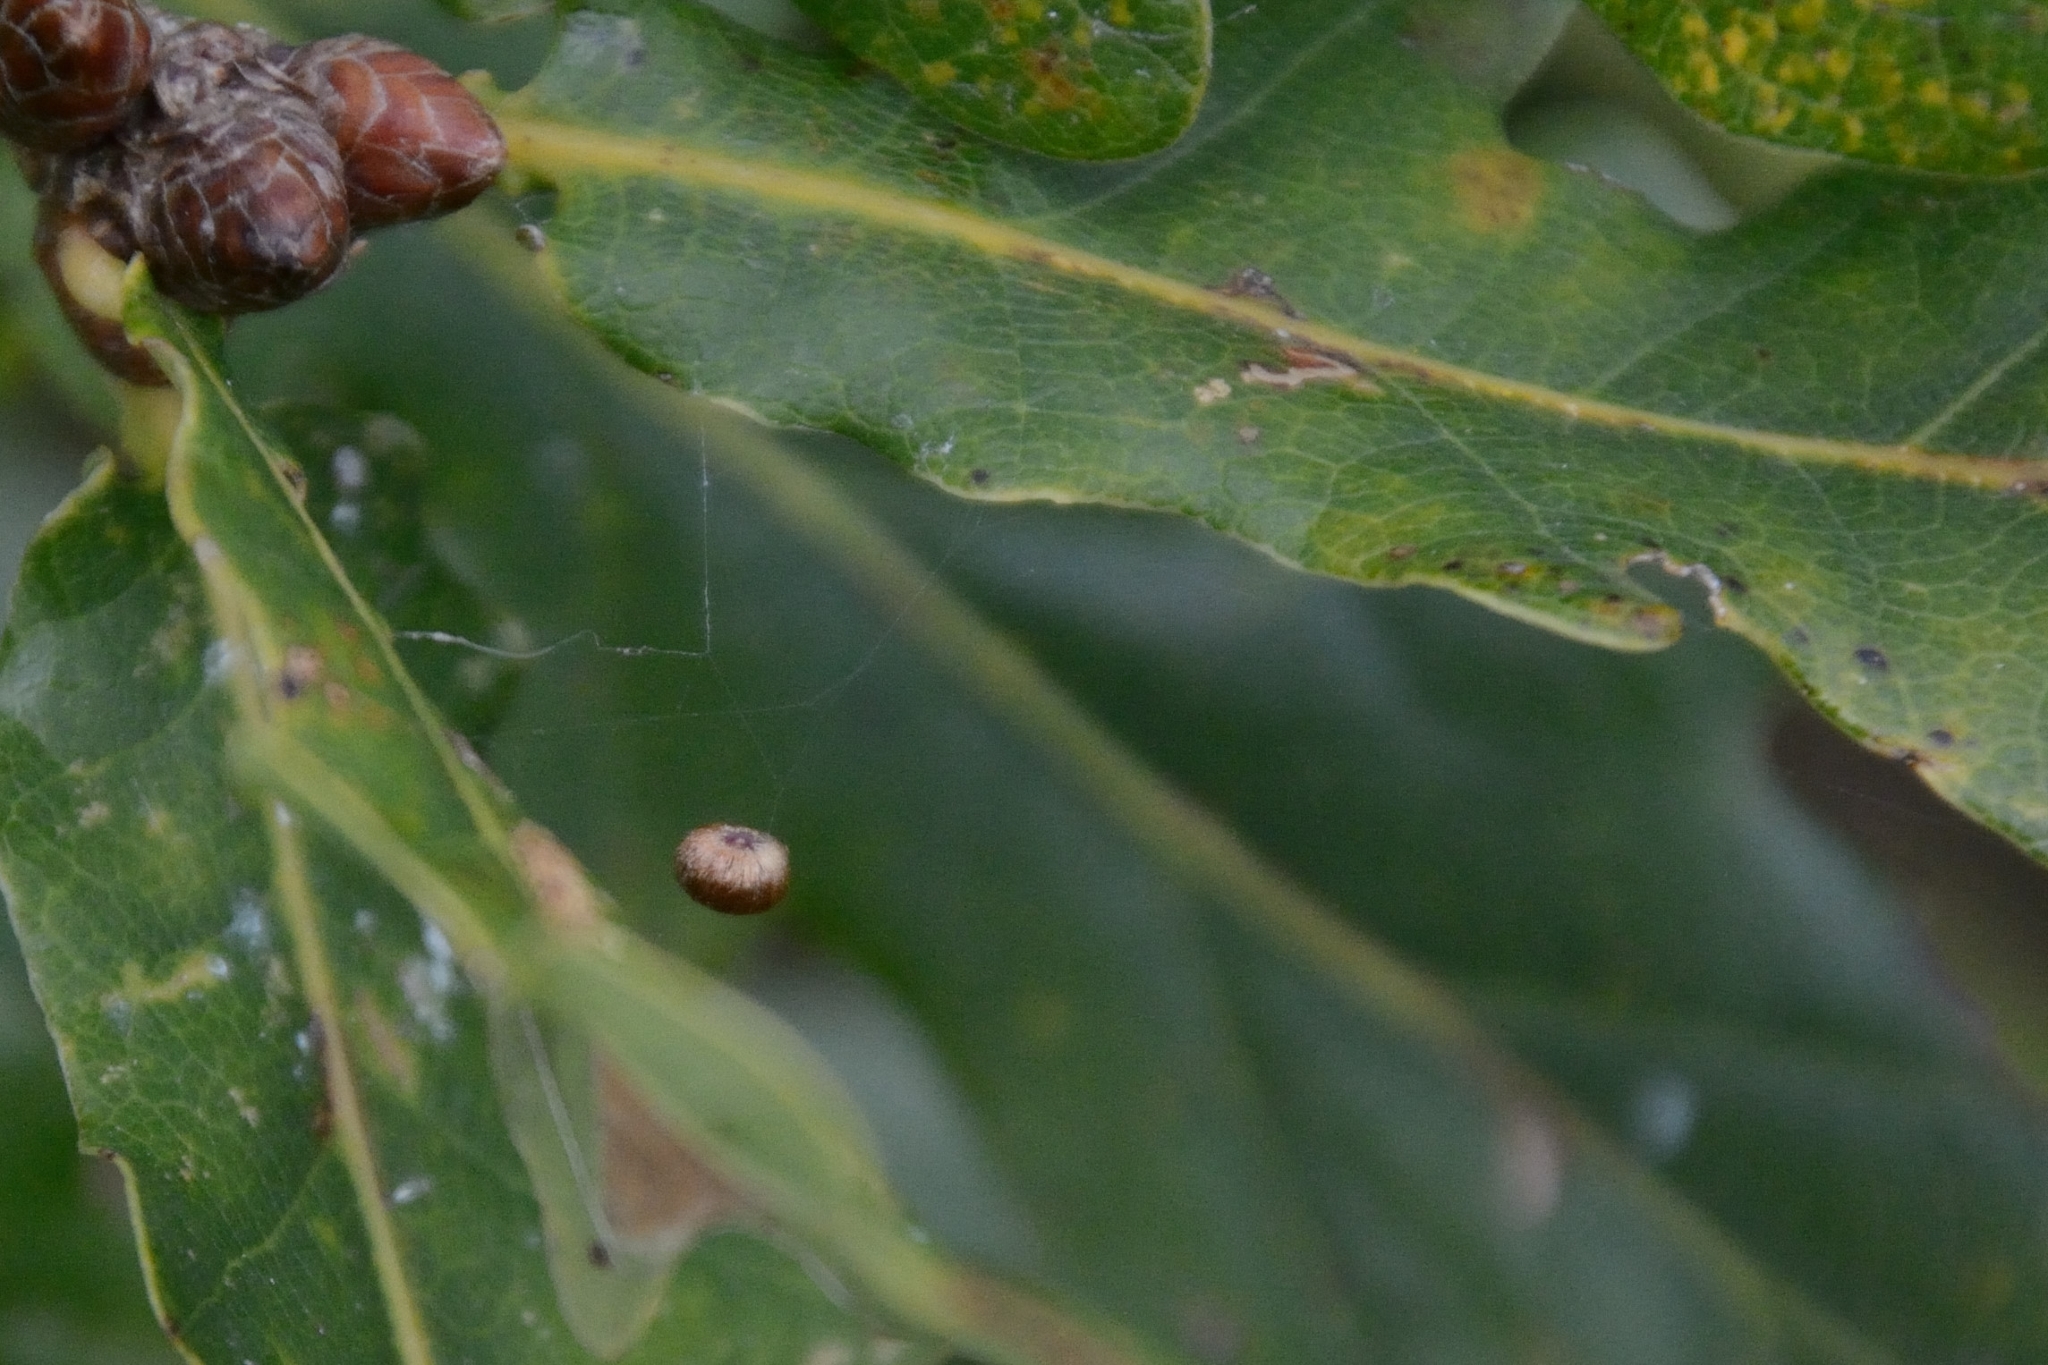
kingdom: Animalia
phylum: Arthropoda
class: Insecta
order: Hymenoptera
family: Cynipidae
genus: Neuroterus
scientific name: Neuroterus numismalis
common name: Silk-button spangle gall
